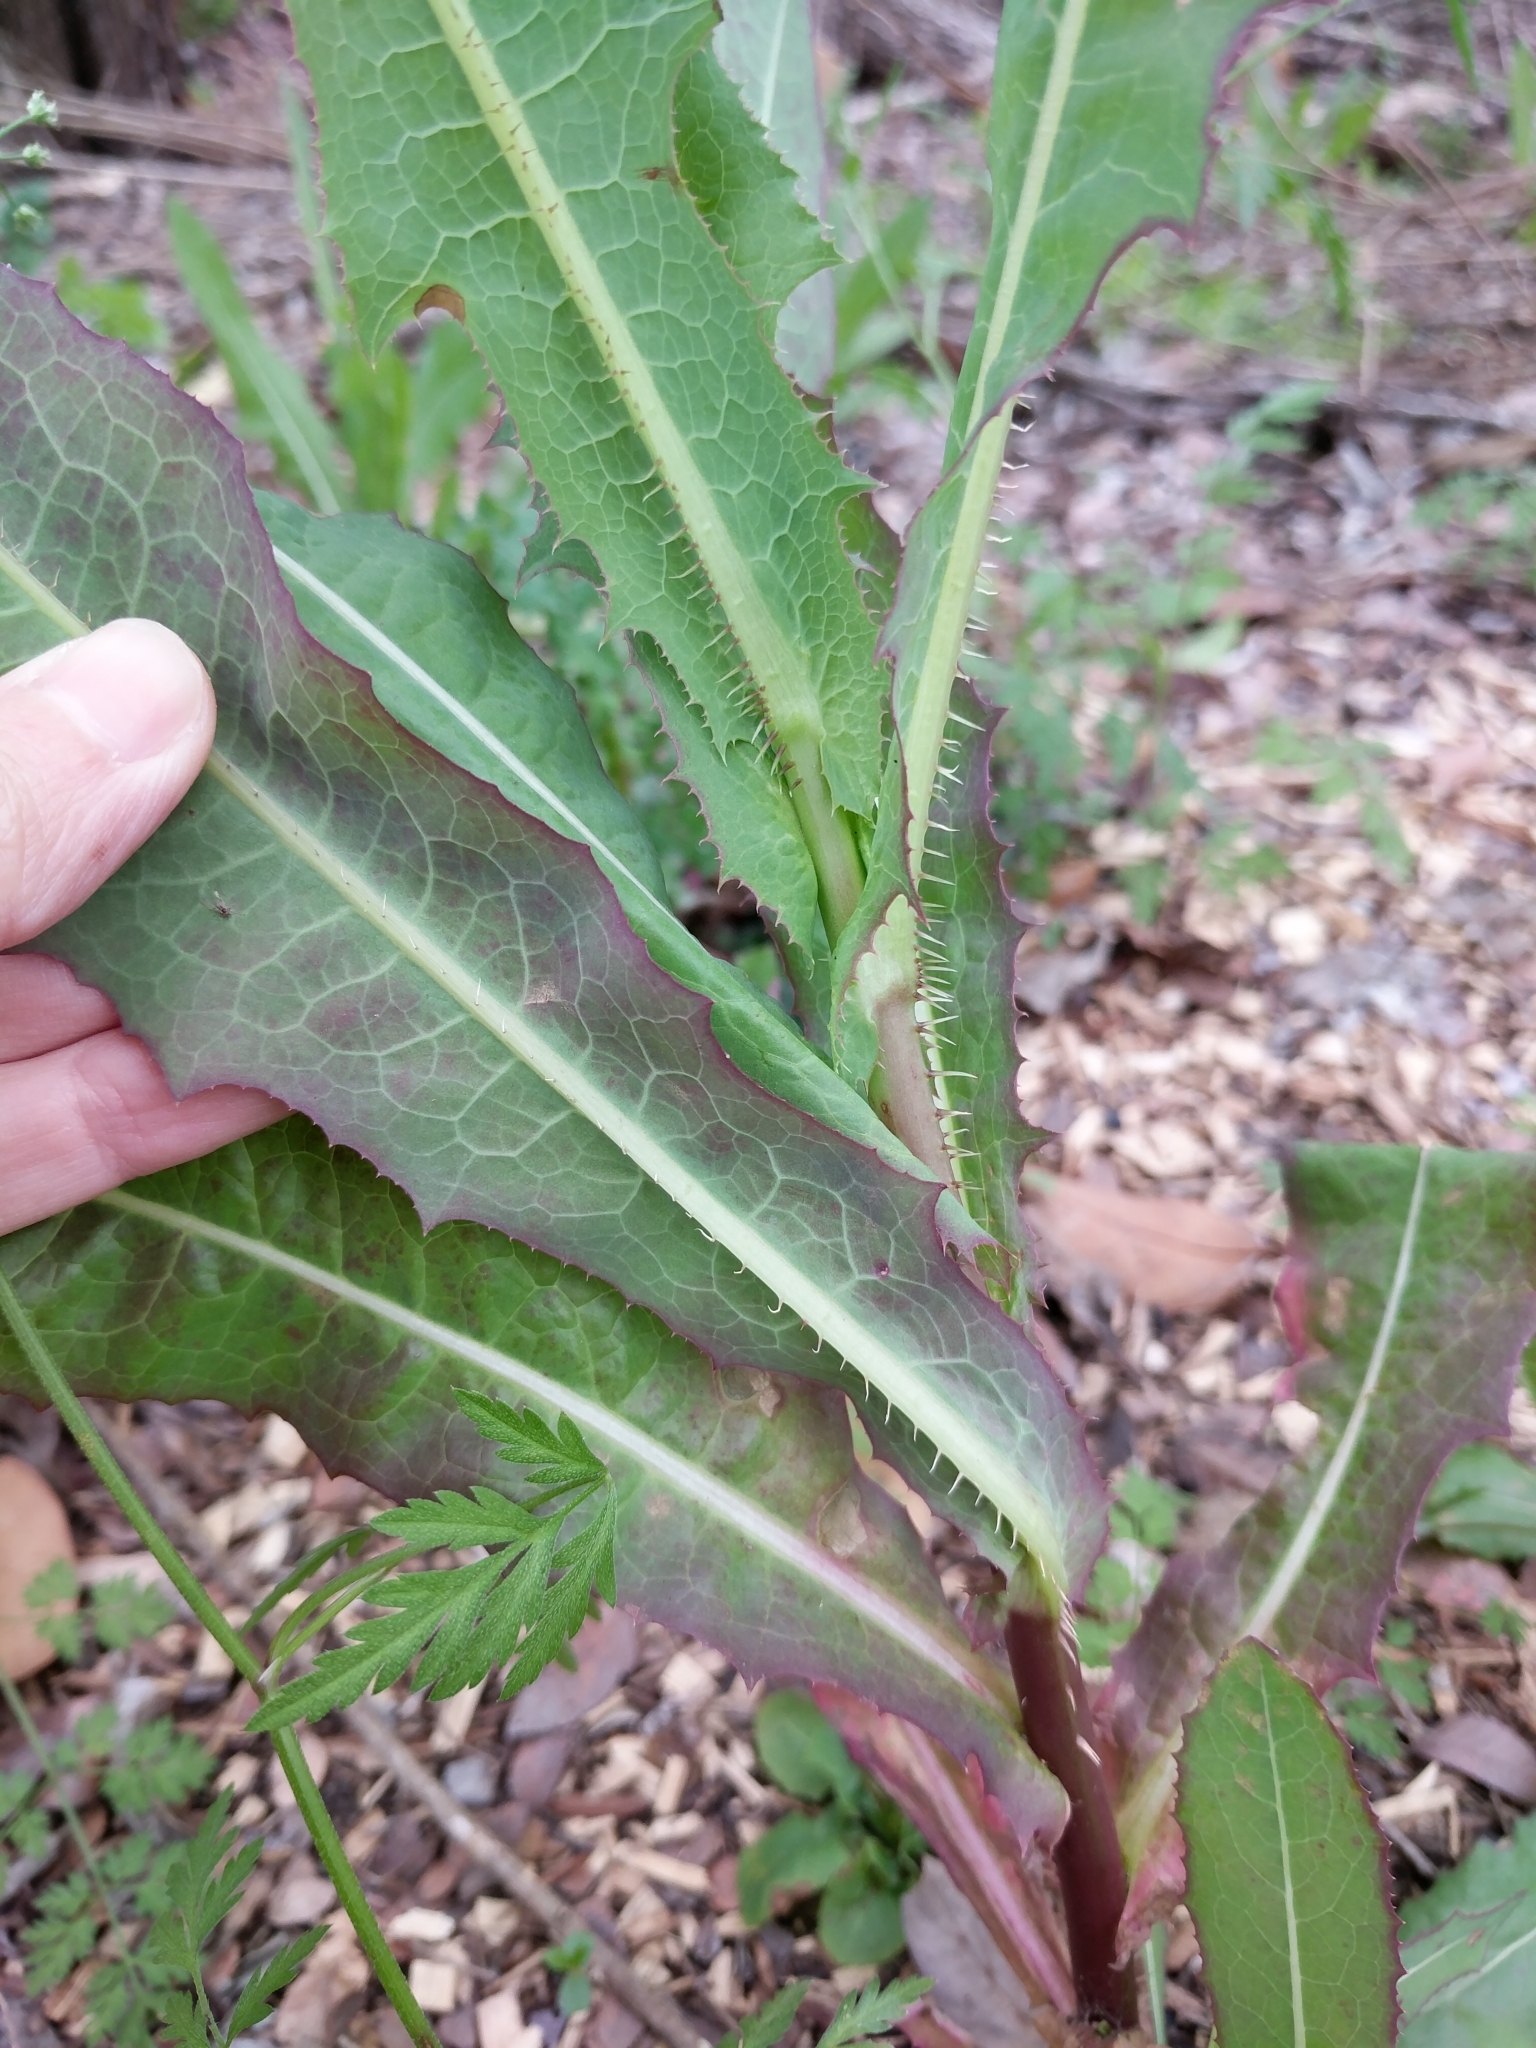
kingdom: Plantae
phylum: Tracheophyta
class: Magnoliopsida
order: Asterales
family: Asteraceae
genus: Lactuca
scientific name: Lactuca serriola
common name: Prickly lettuce
